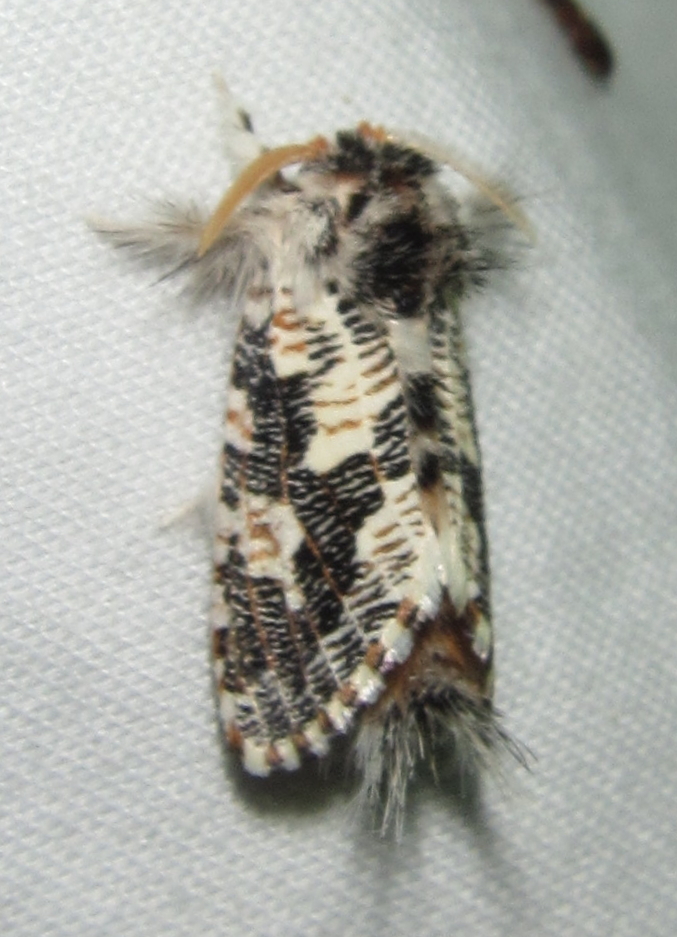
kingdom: Animalia
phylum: Arthropoda
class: Insecta
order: Lepidoptera
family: Metarbelidae
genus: Salagena
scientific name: Salagena tessellata
